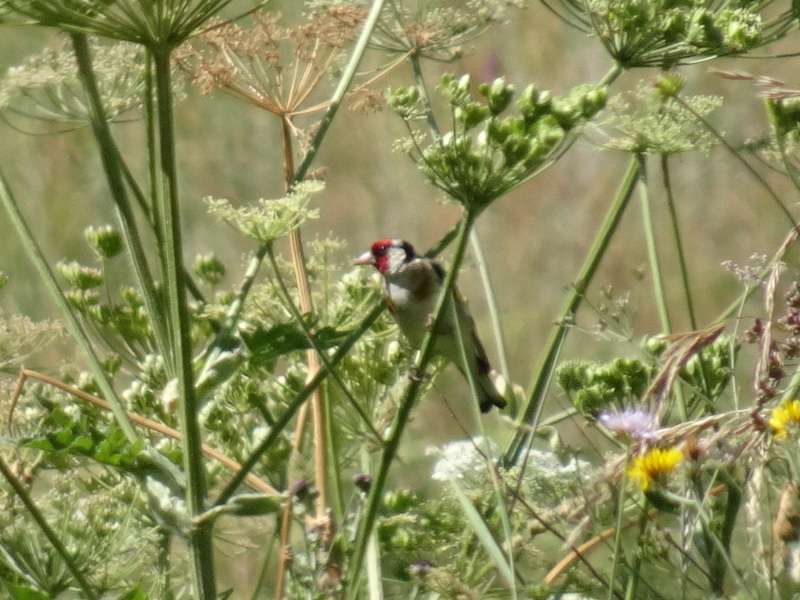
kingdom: Animalia
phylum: Chordata
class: Aves
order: Passeriformes
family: Fringillidae
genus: Carduelis
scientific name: Carduelis carduelis
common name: European goldfinch
